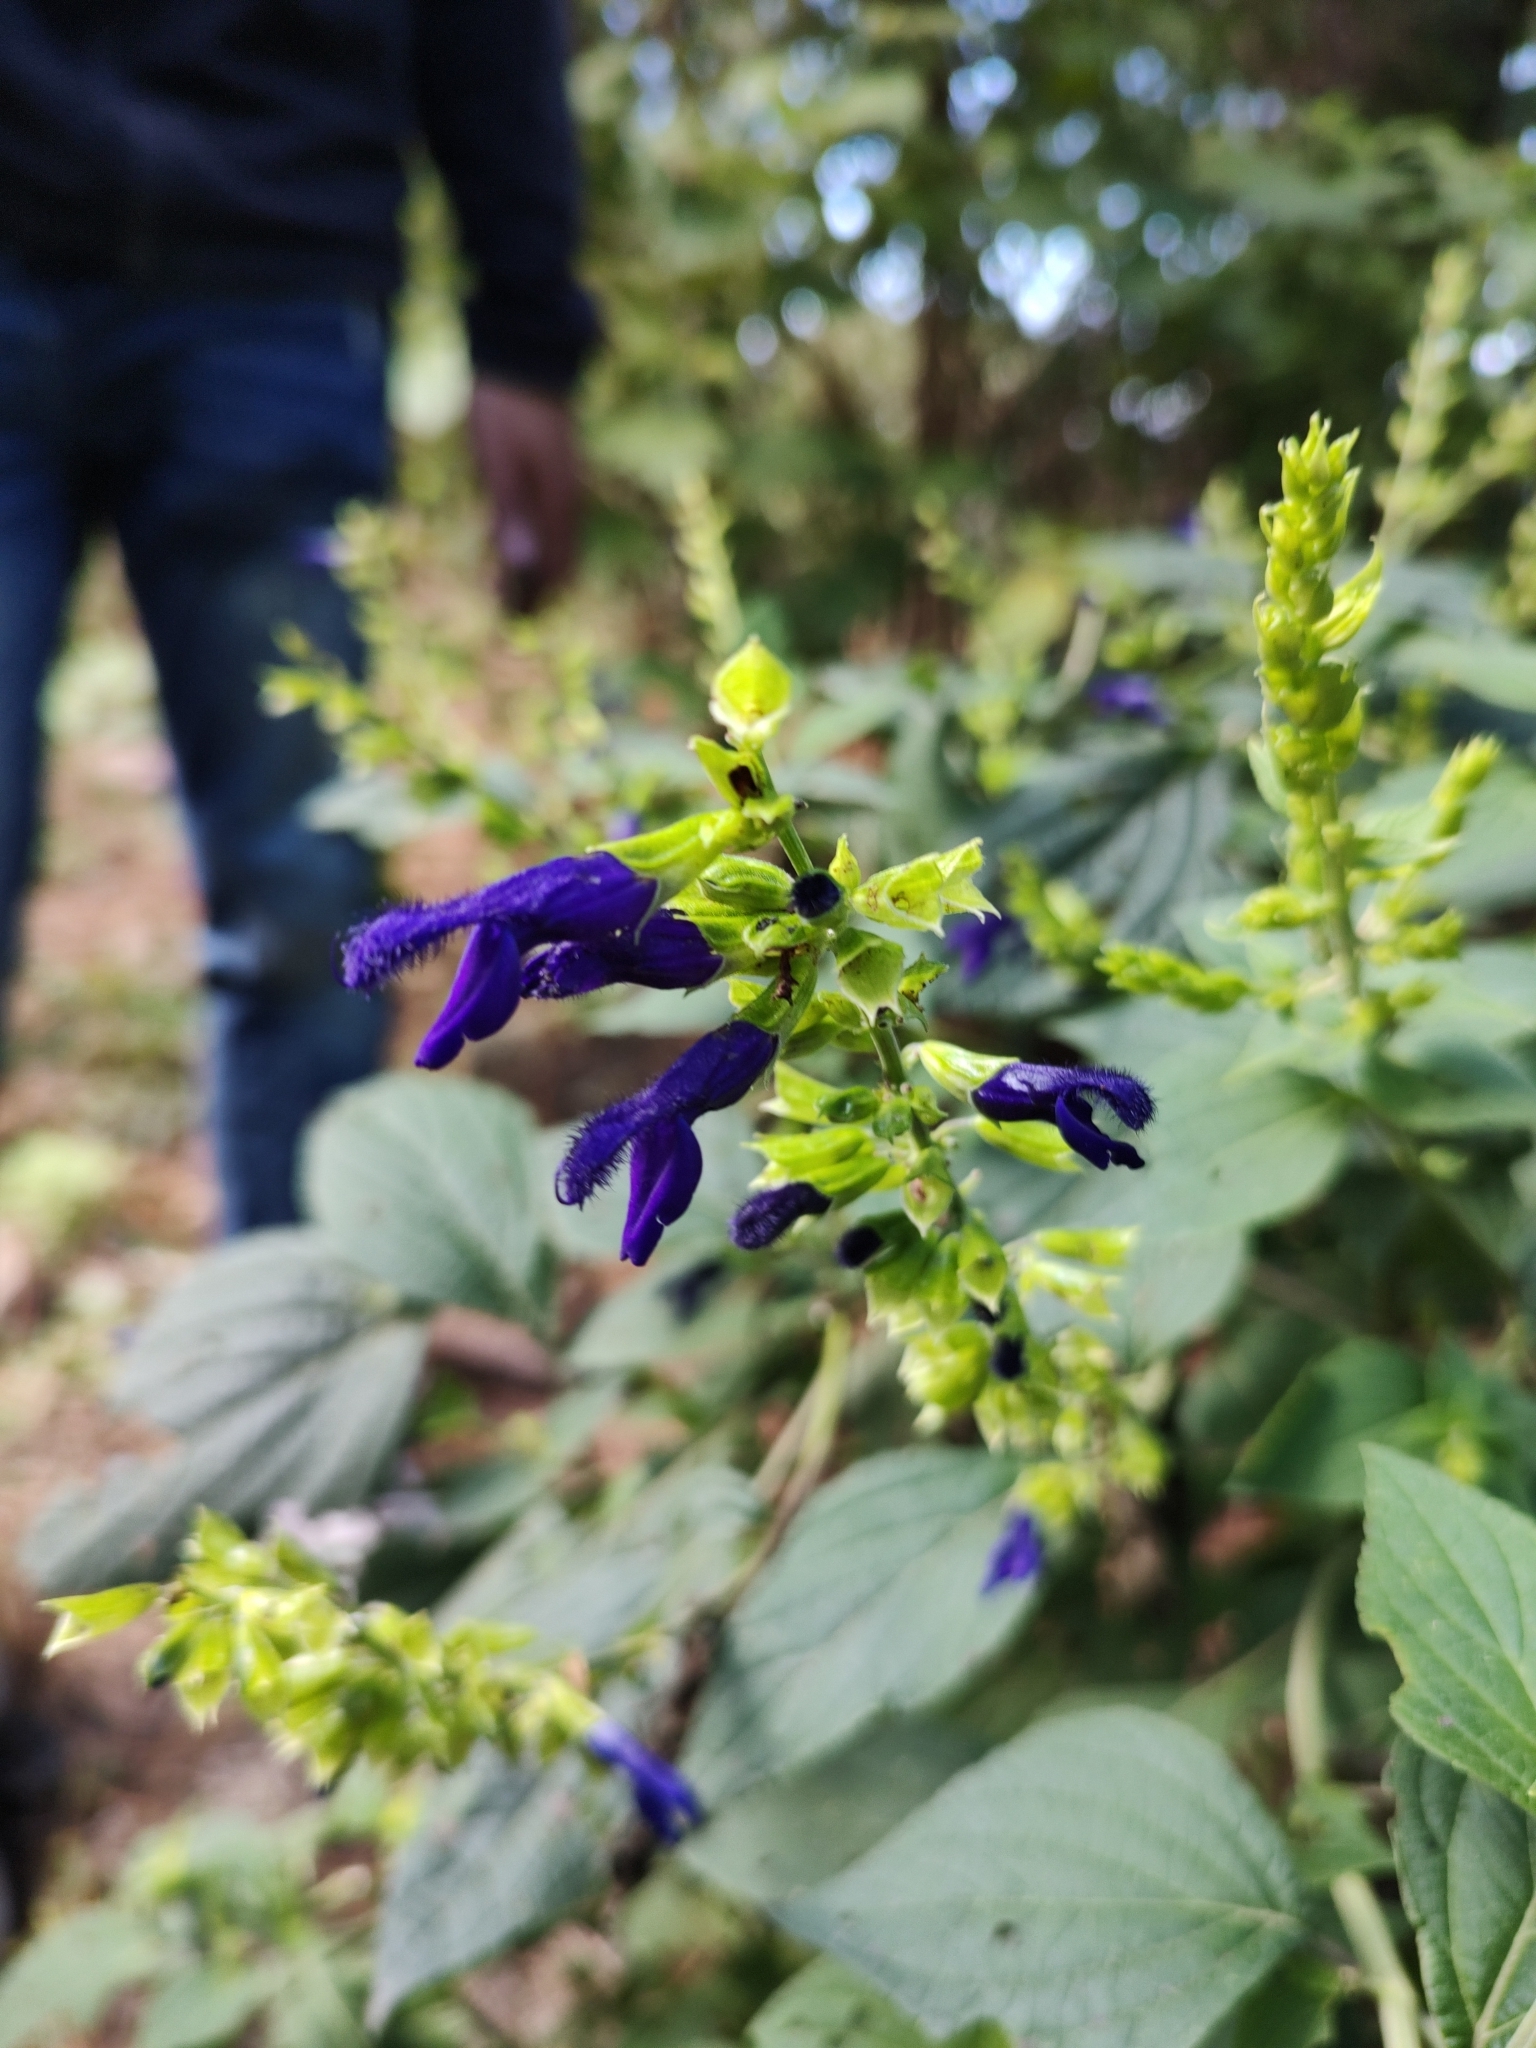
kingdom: Plantae
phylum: Tracheophyta
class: Magnoliopsida
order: Lamiales
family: Lamiaceae
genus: Salvia
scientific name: Salvia mexicana
